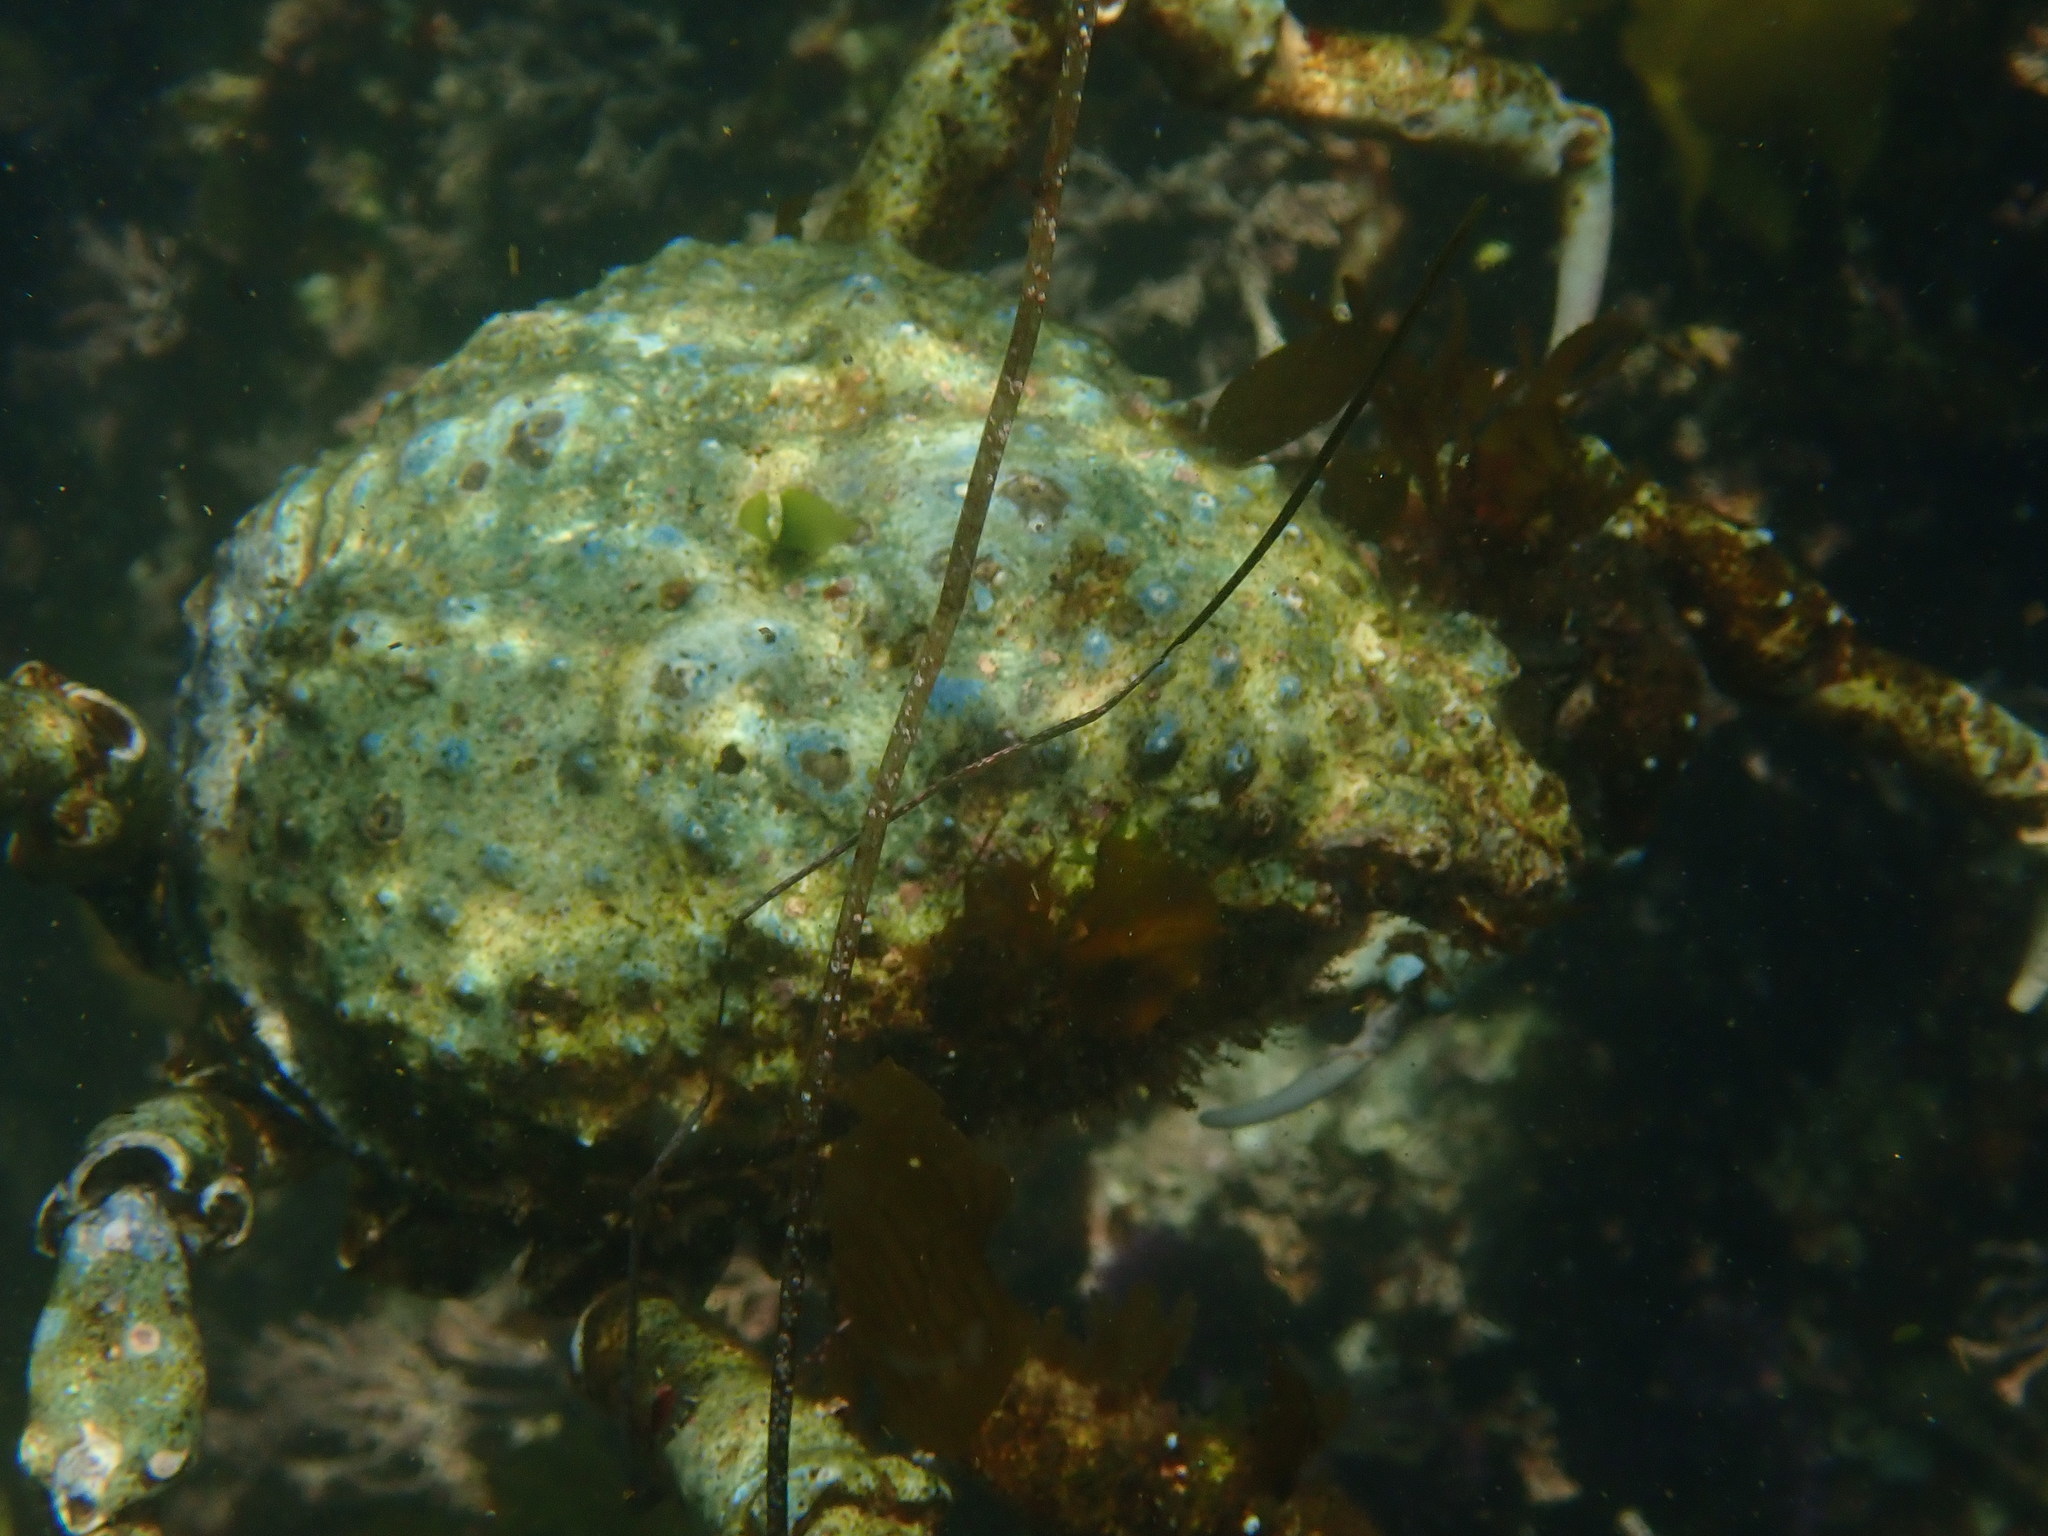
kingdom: Animalia
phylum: Arthropoda
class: Malacostraca
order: Decapoda
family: Epialtidae
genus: Loxorhynchus
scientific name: Loxorhynchus grandis
